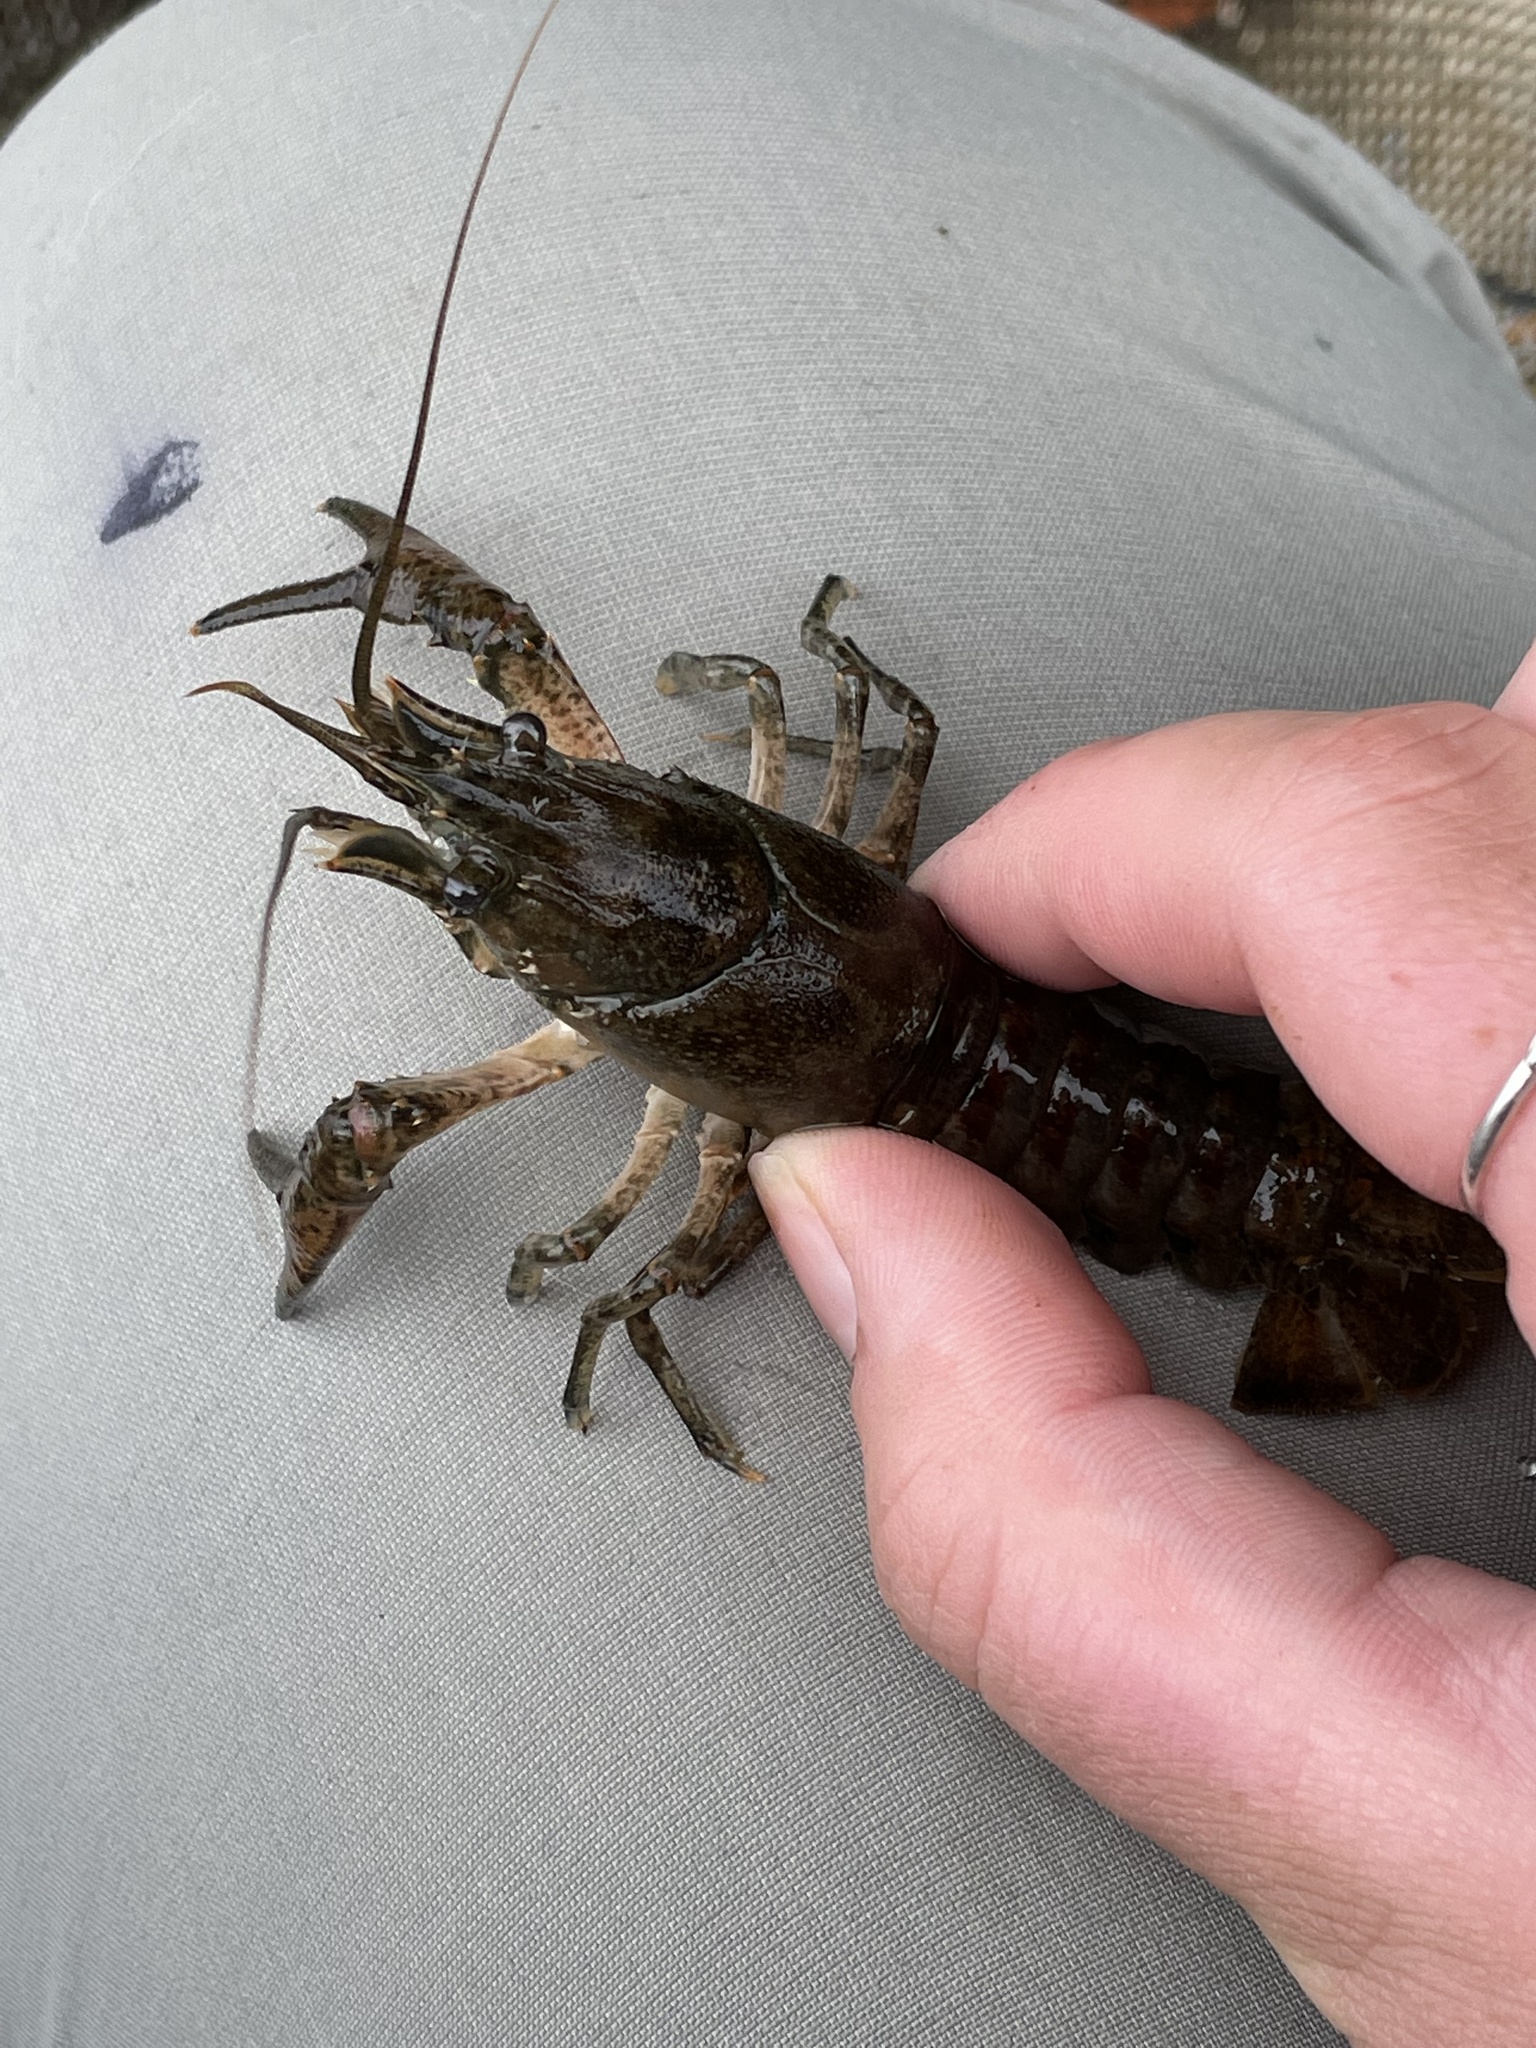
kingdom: Animalia
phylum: Arthropoda
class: Malacostraca
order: Decapoda
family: Cambaridae
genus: Faxonius
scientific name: Faxonius limosus
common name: American crayfish
